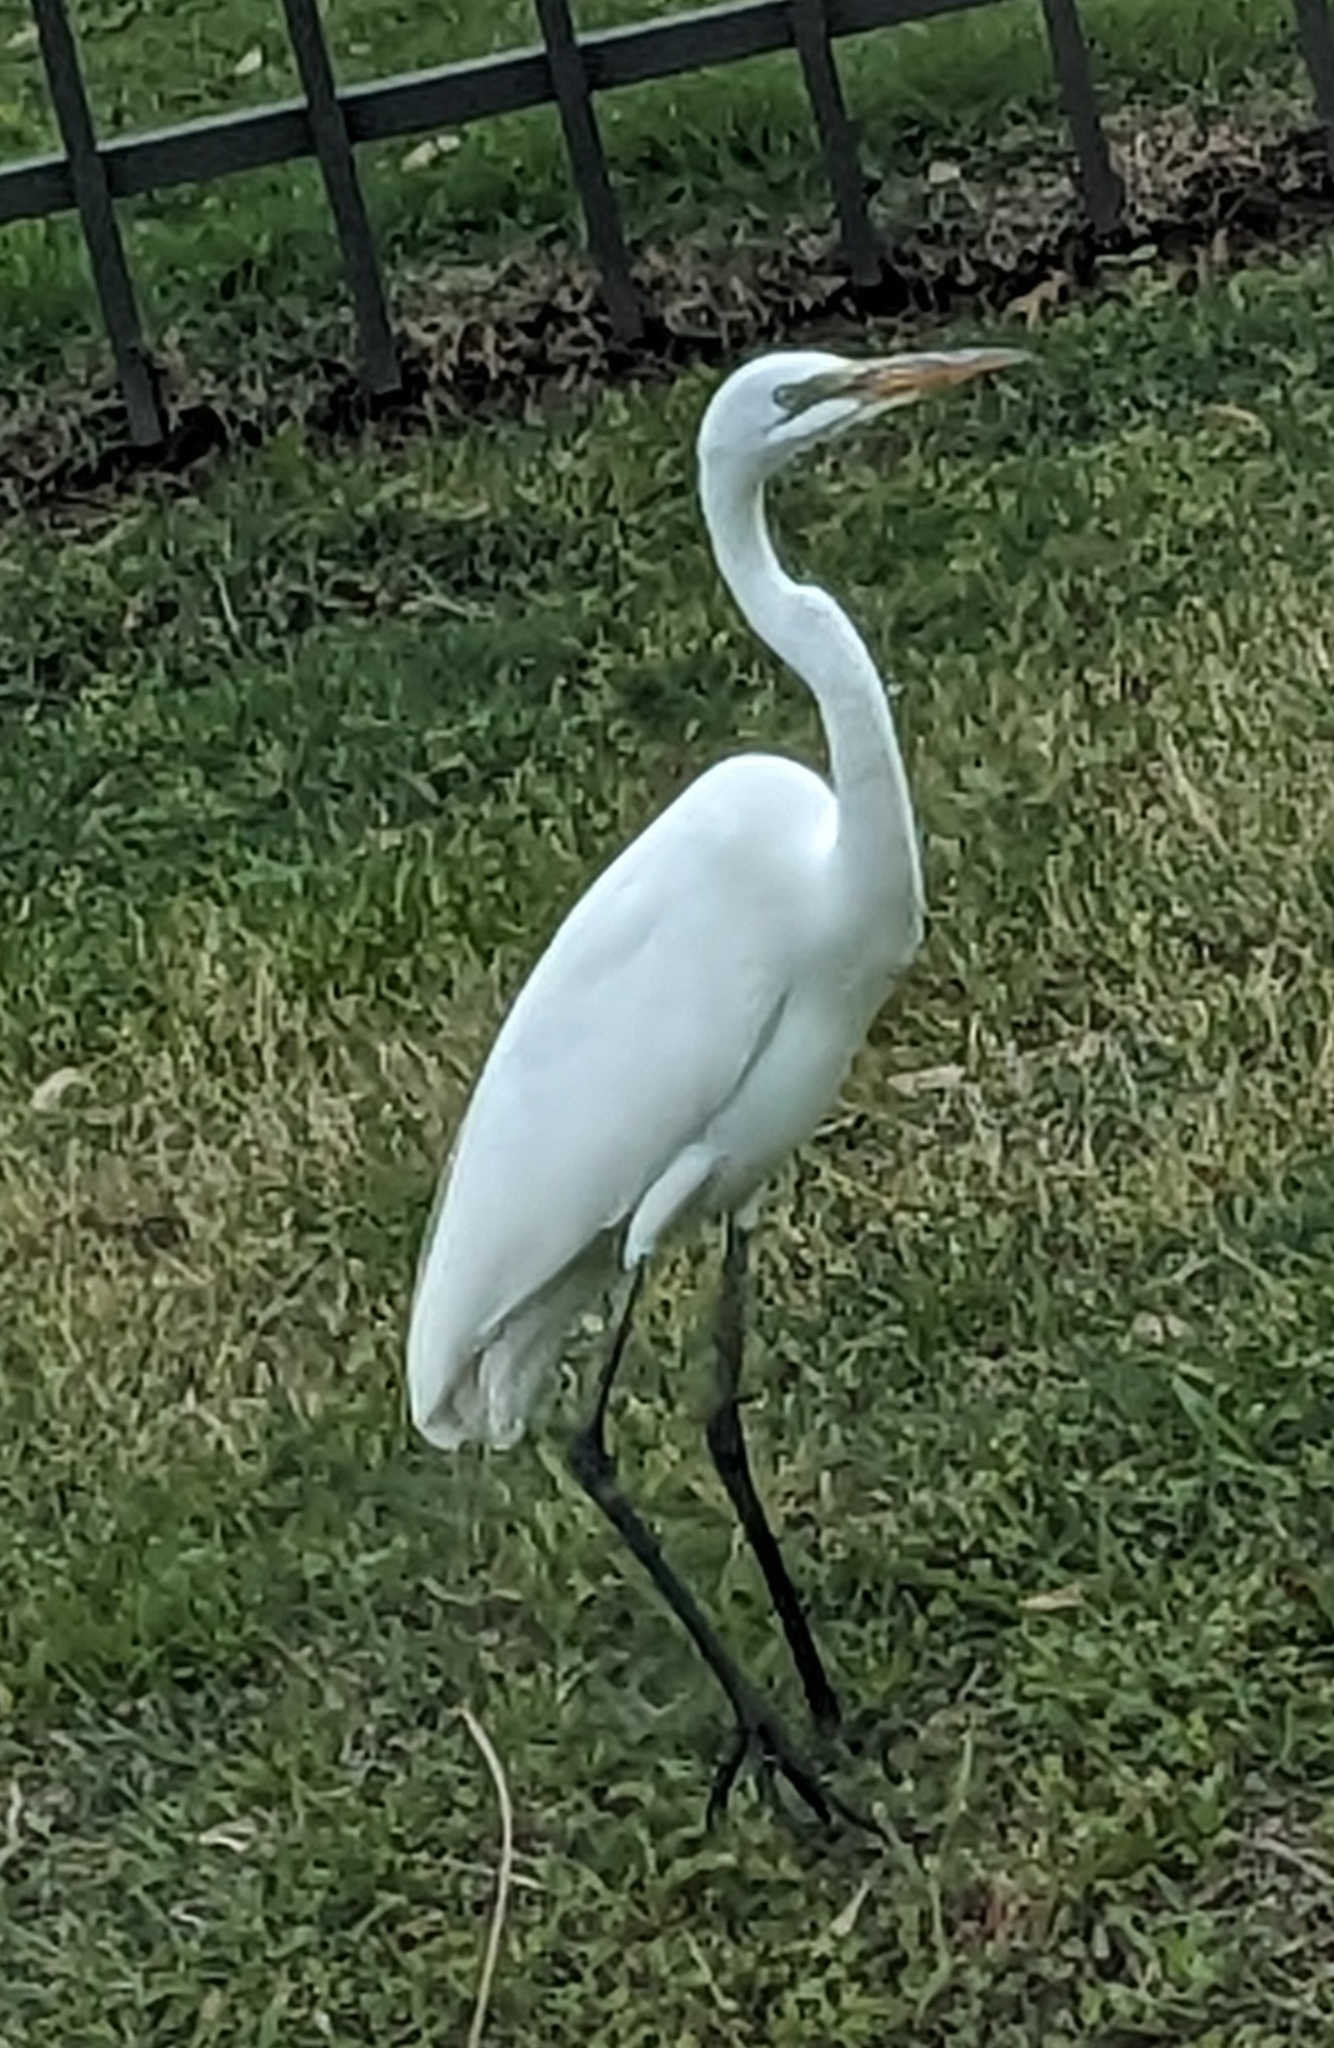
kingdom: Animalia
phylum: Chordata
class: Aves
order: Pelecaniformes
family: Ardeidae
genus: Ardea
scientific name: Ardea alba
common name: Great egret
